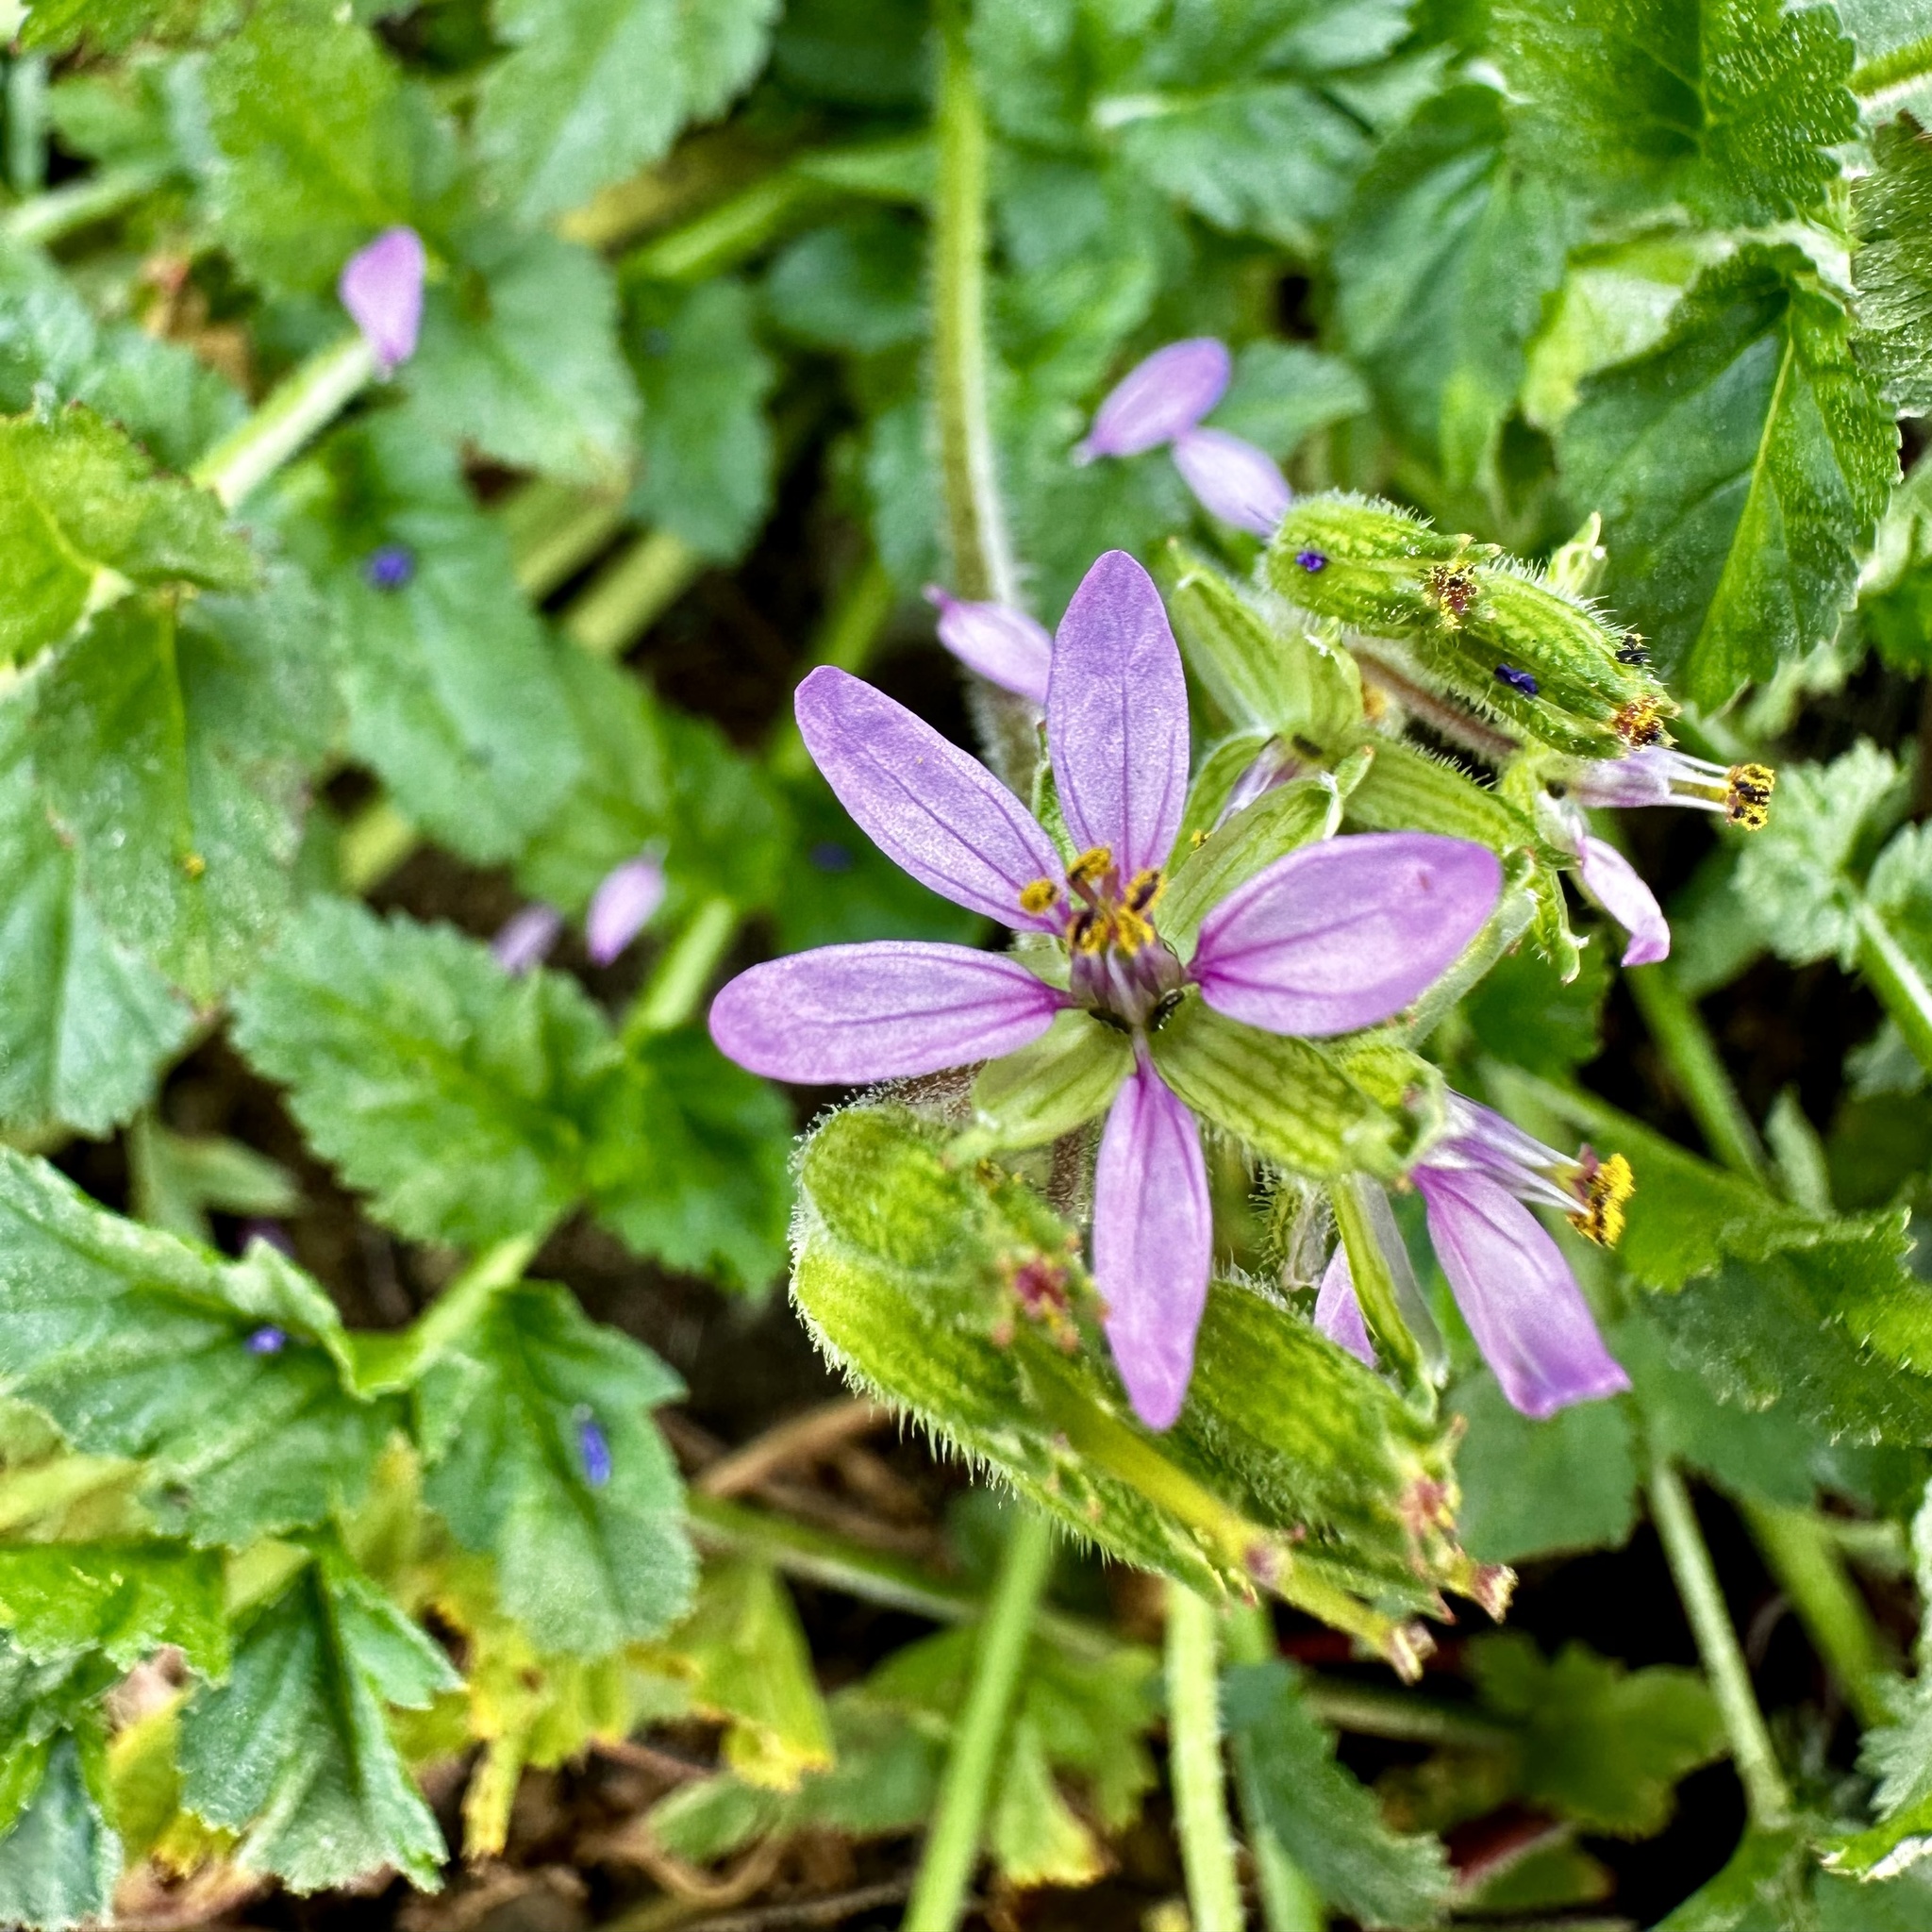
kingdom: Plantae
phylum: Tracheophyta
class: Magnoliopsida
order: Geraniales
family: Geraniaceae
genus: Erodium
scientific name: Erodium moschatum
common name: Musk stork's-bill
